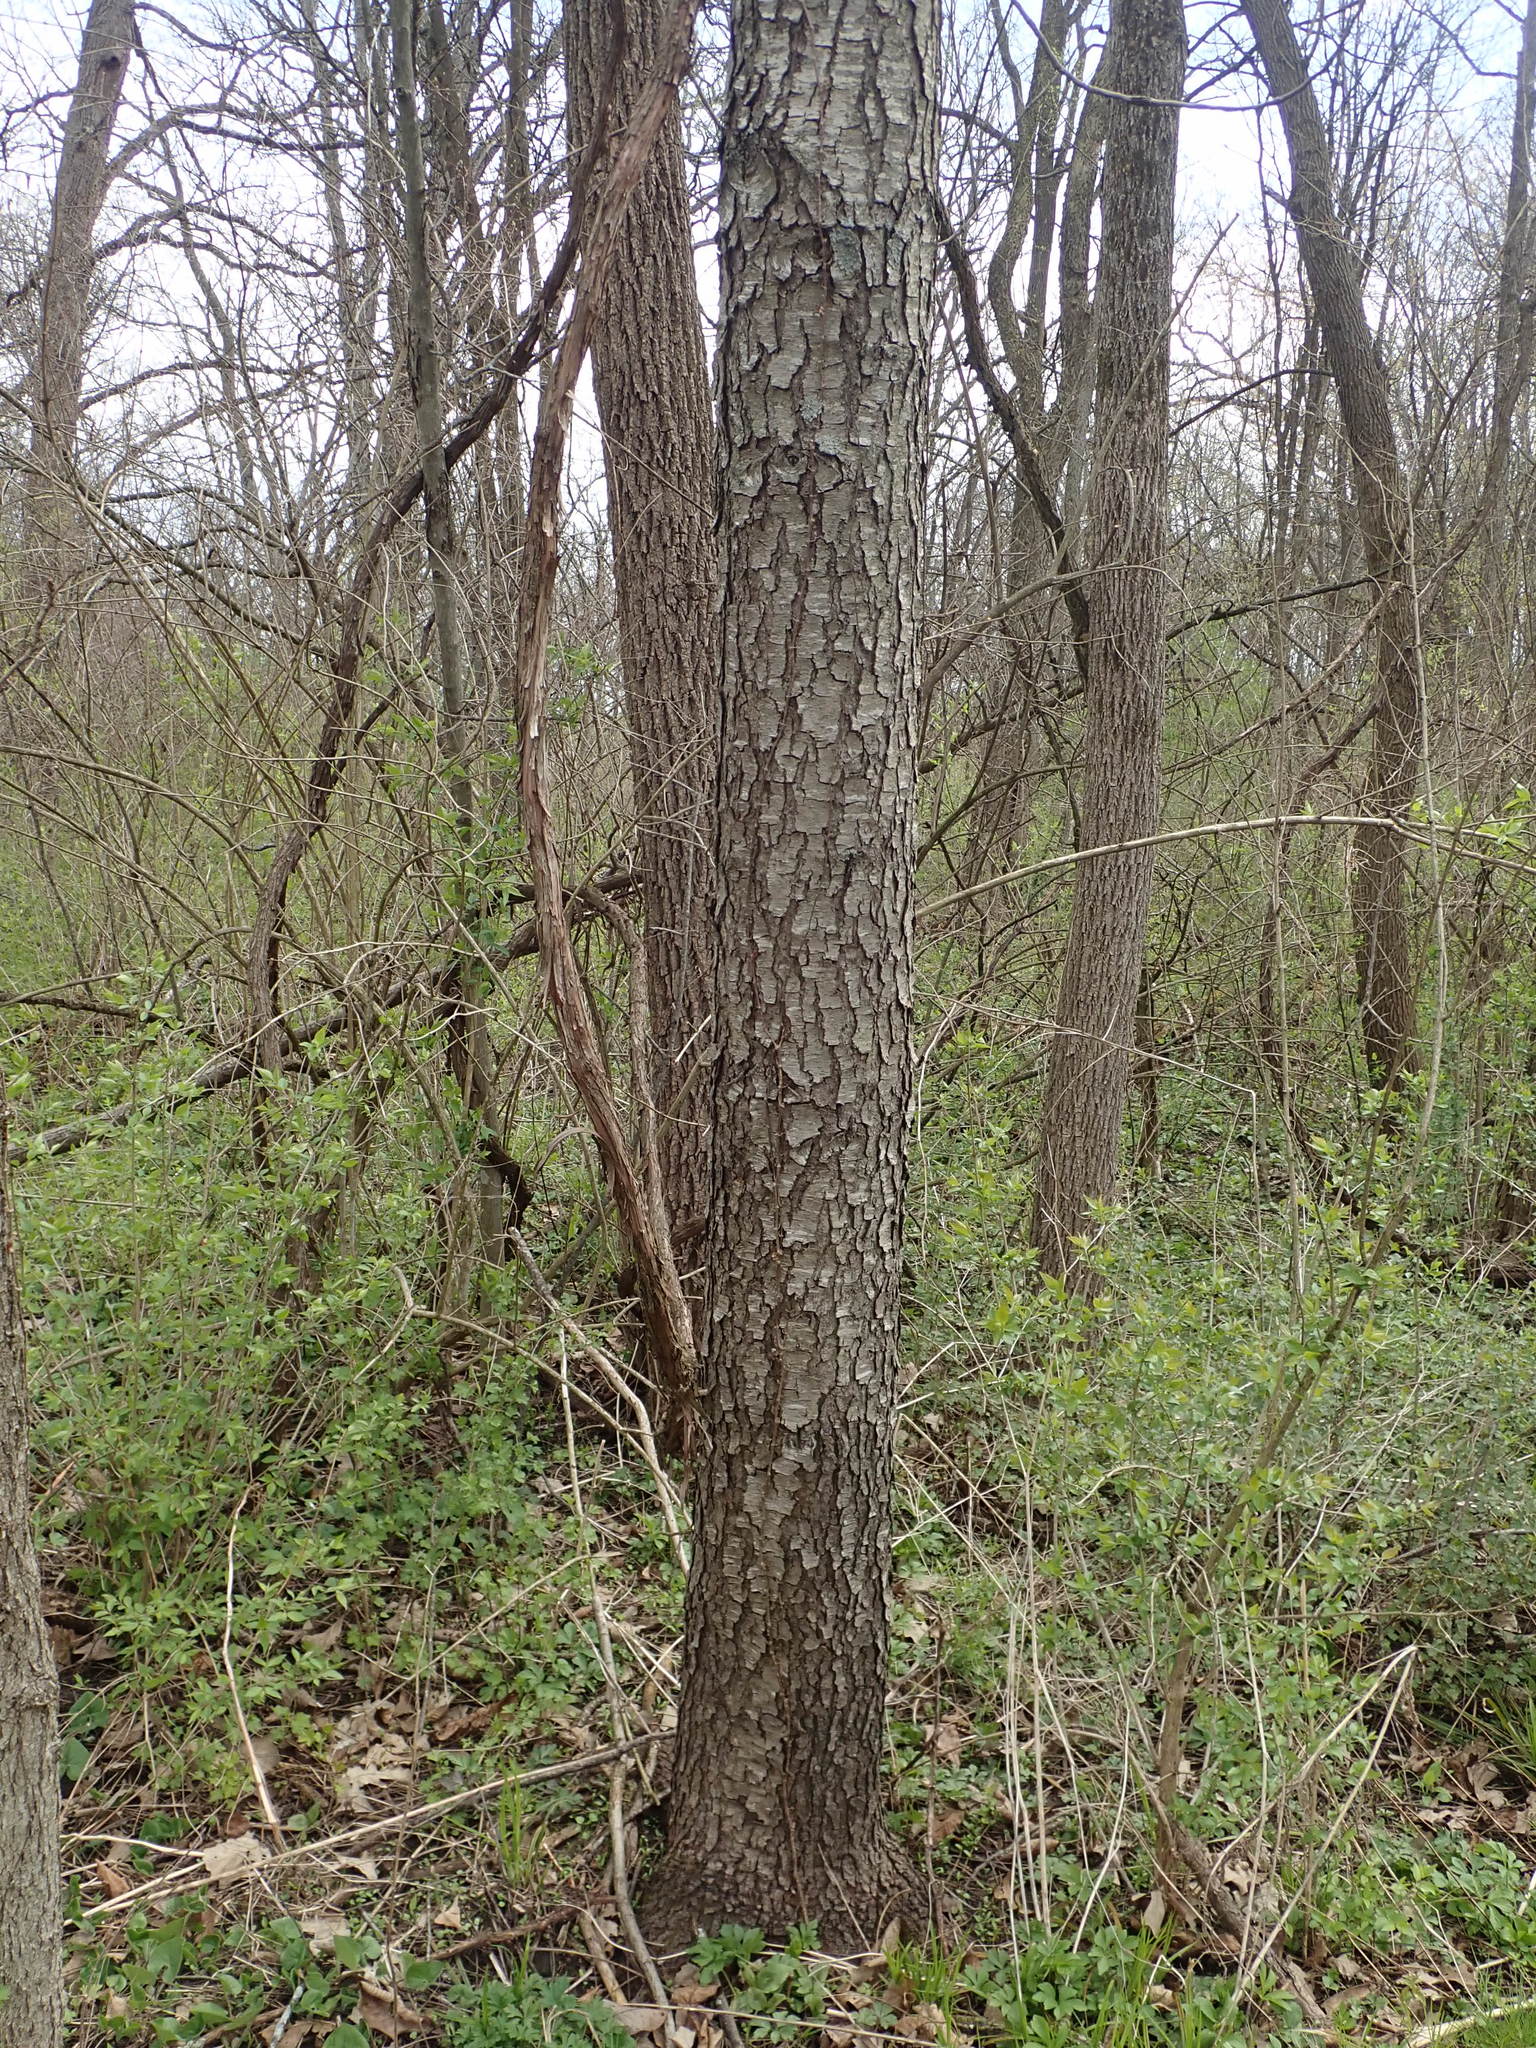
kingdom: Plantae
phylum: Tracheophyta
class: Magnoliopsida
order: Rosales
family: Rosaceae
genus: Prunus
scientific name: Prunus serotina
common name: Black cherry
